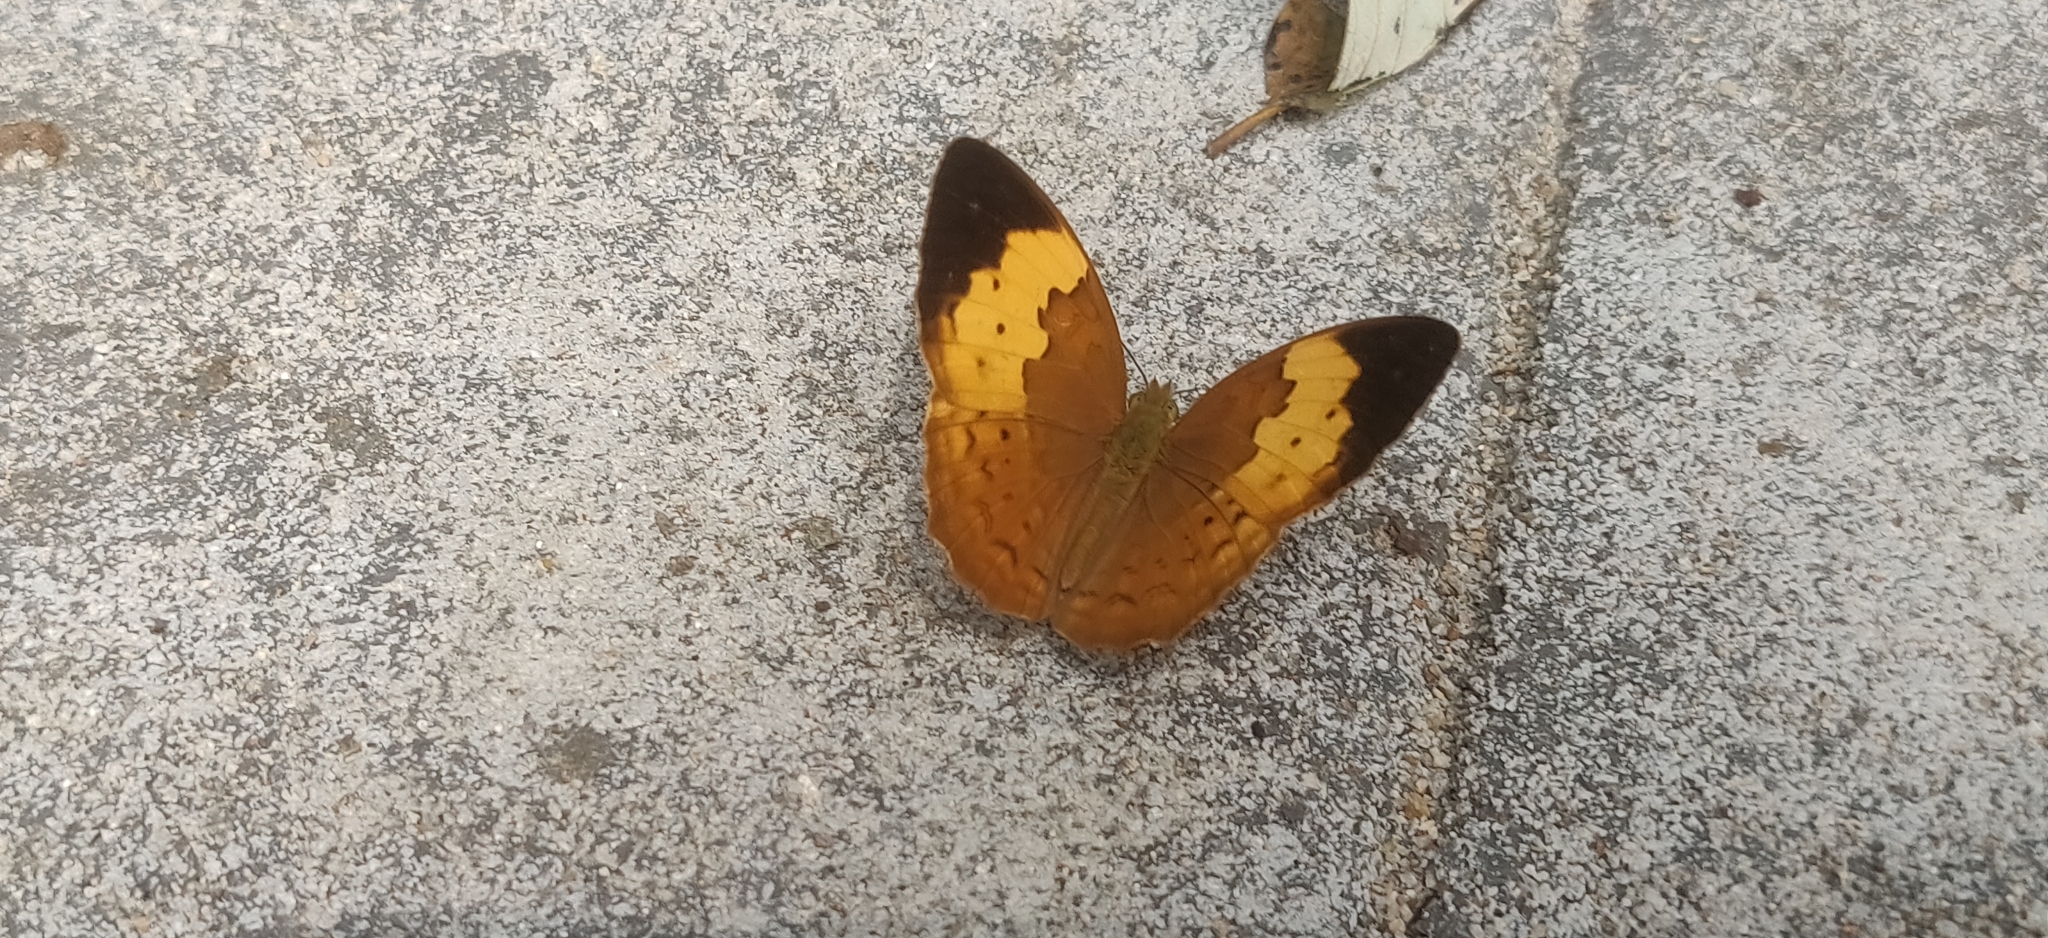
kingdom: Animalia
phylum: Arthropoda
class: Insecta
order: Lepidoptera
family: Nymphalidae
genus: Cupha
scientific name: Cupha erymanthis
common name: Rustic
